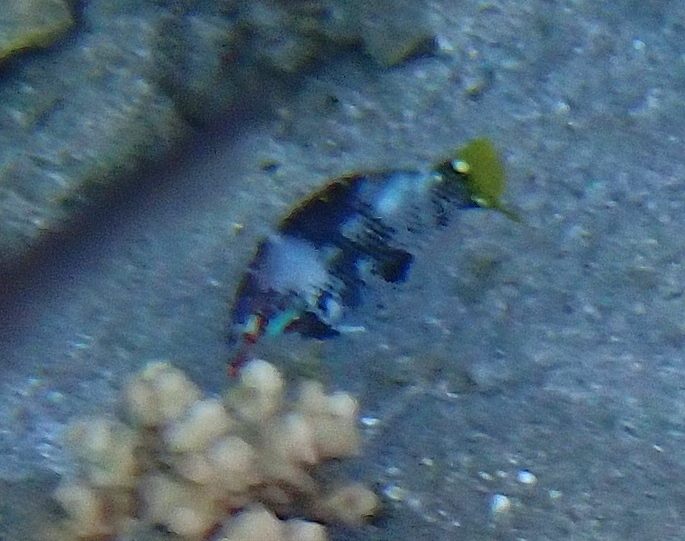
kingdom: Animalia
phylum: Chordata
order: Perciformes
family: Labridae
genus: Halichoeres
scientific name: Halichoeres hortulanus
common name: Checkerboard wrasse
